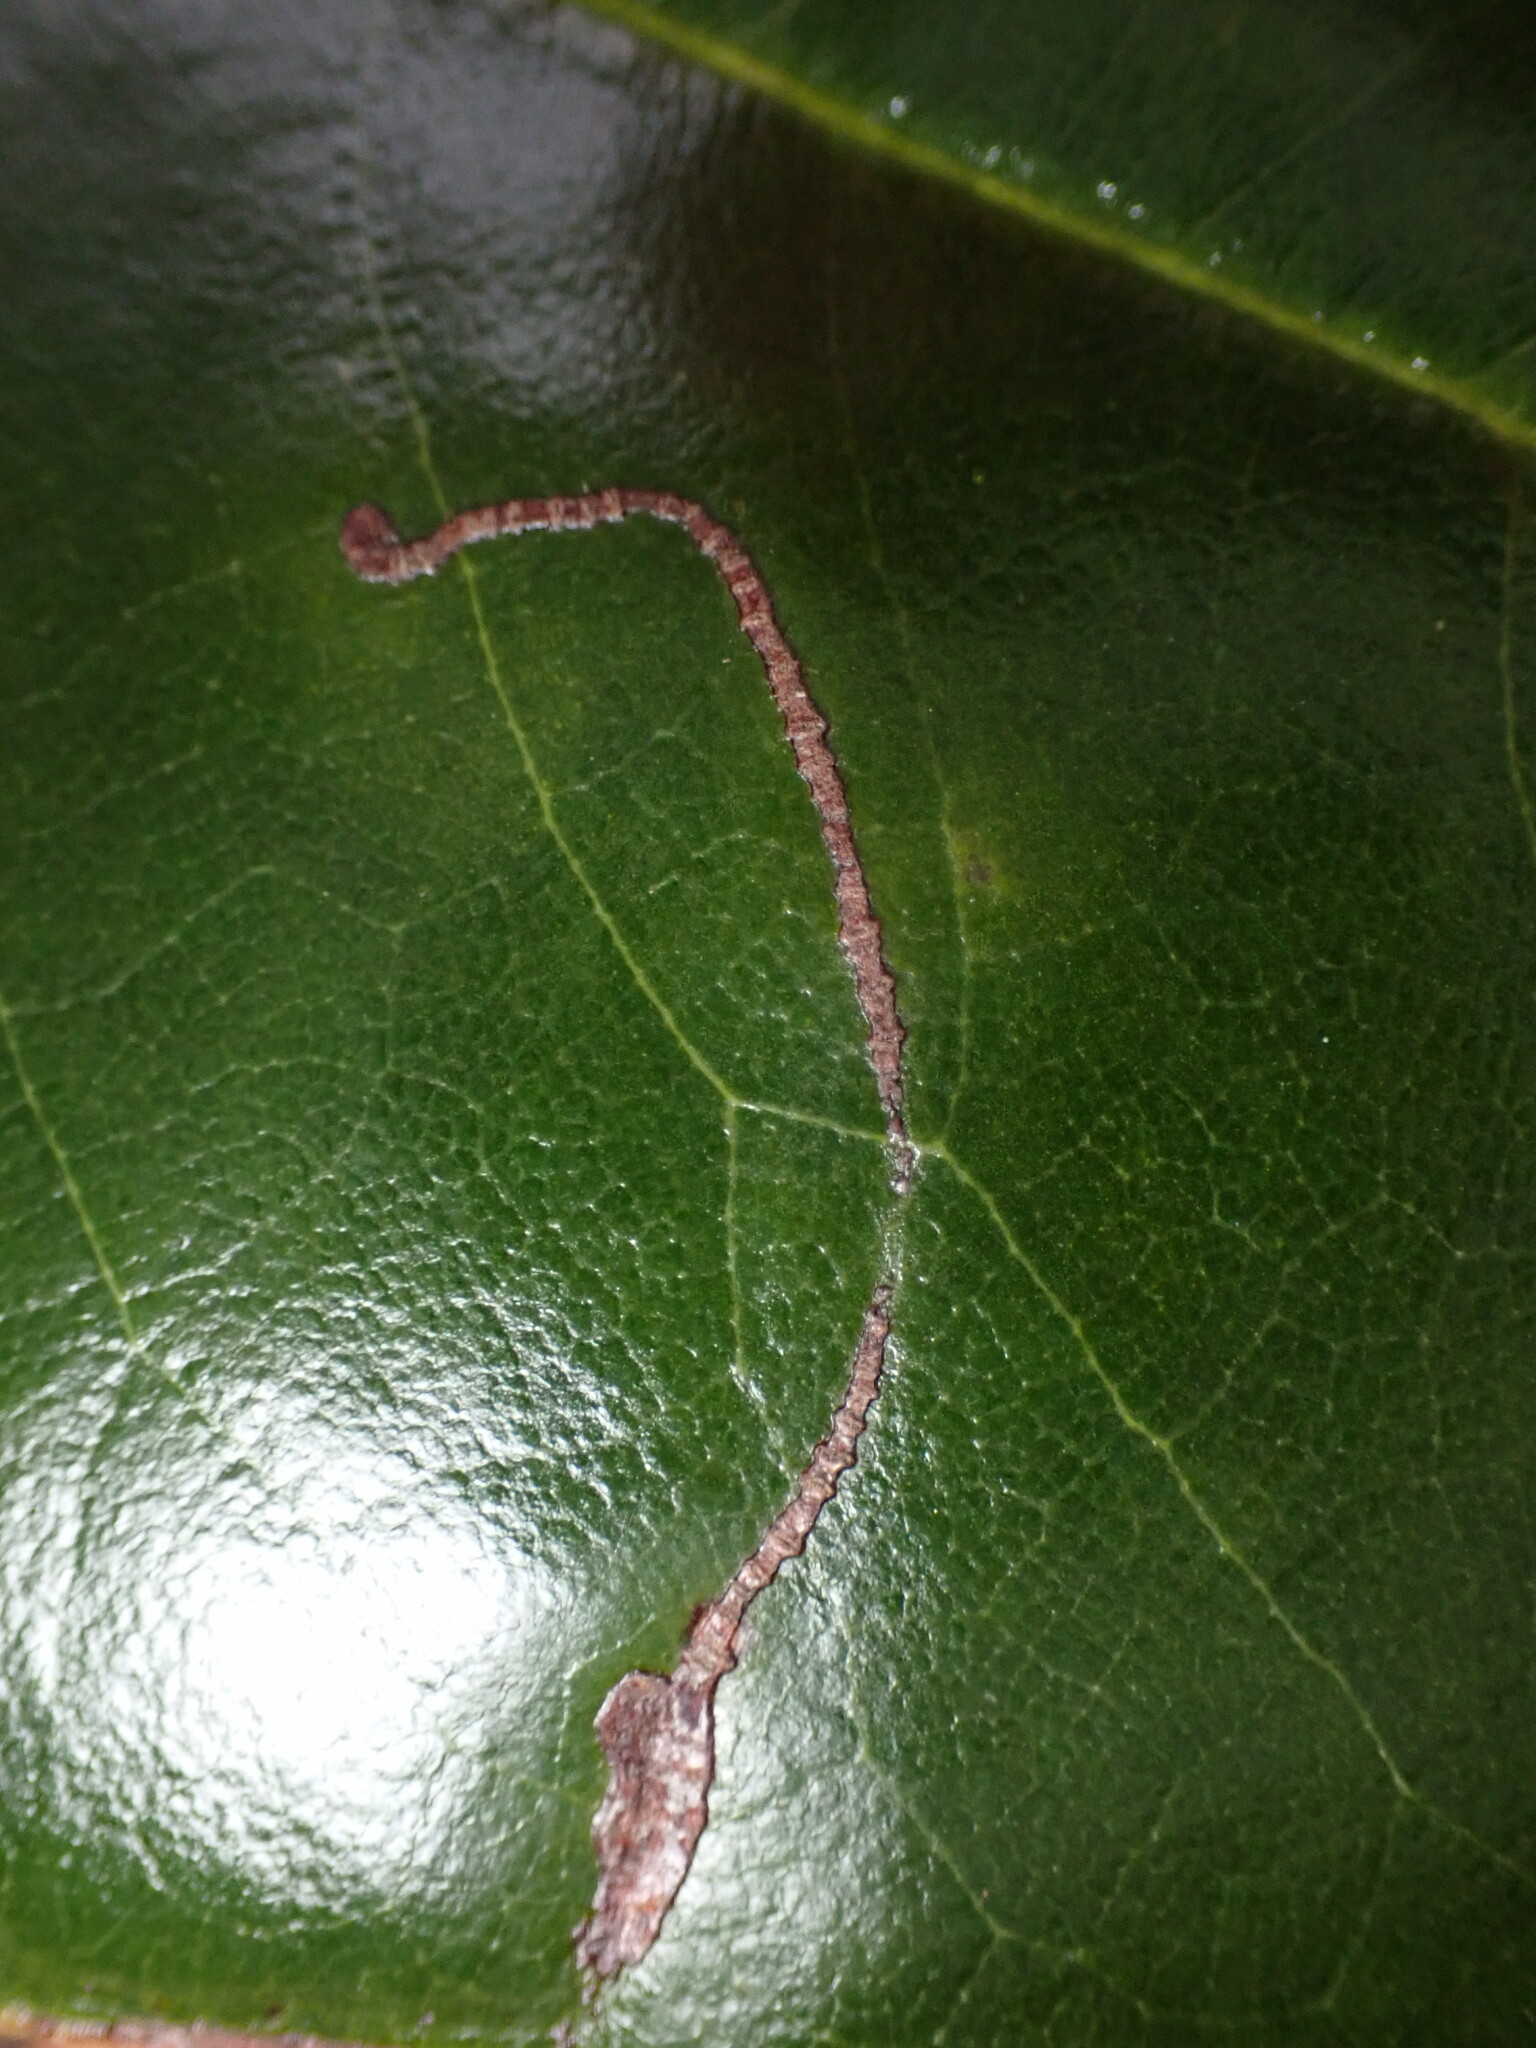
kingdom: Animalia
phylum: Arthropoda
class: Insecta
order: Lepidoptera
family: Gracillariidae
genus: Phyllocnistis
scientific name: Phyllocnistis liriodendronella
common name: Tulip tree leaf miner
